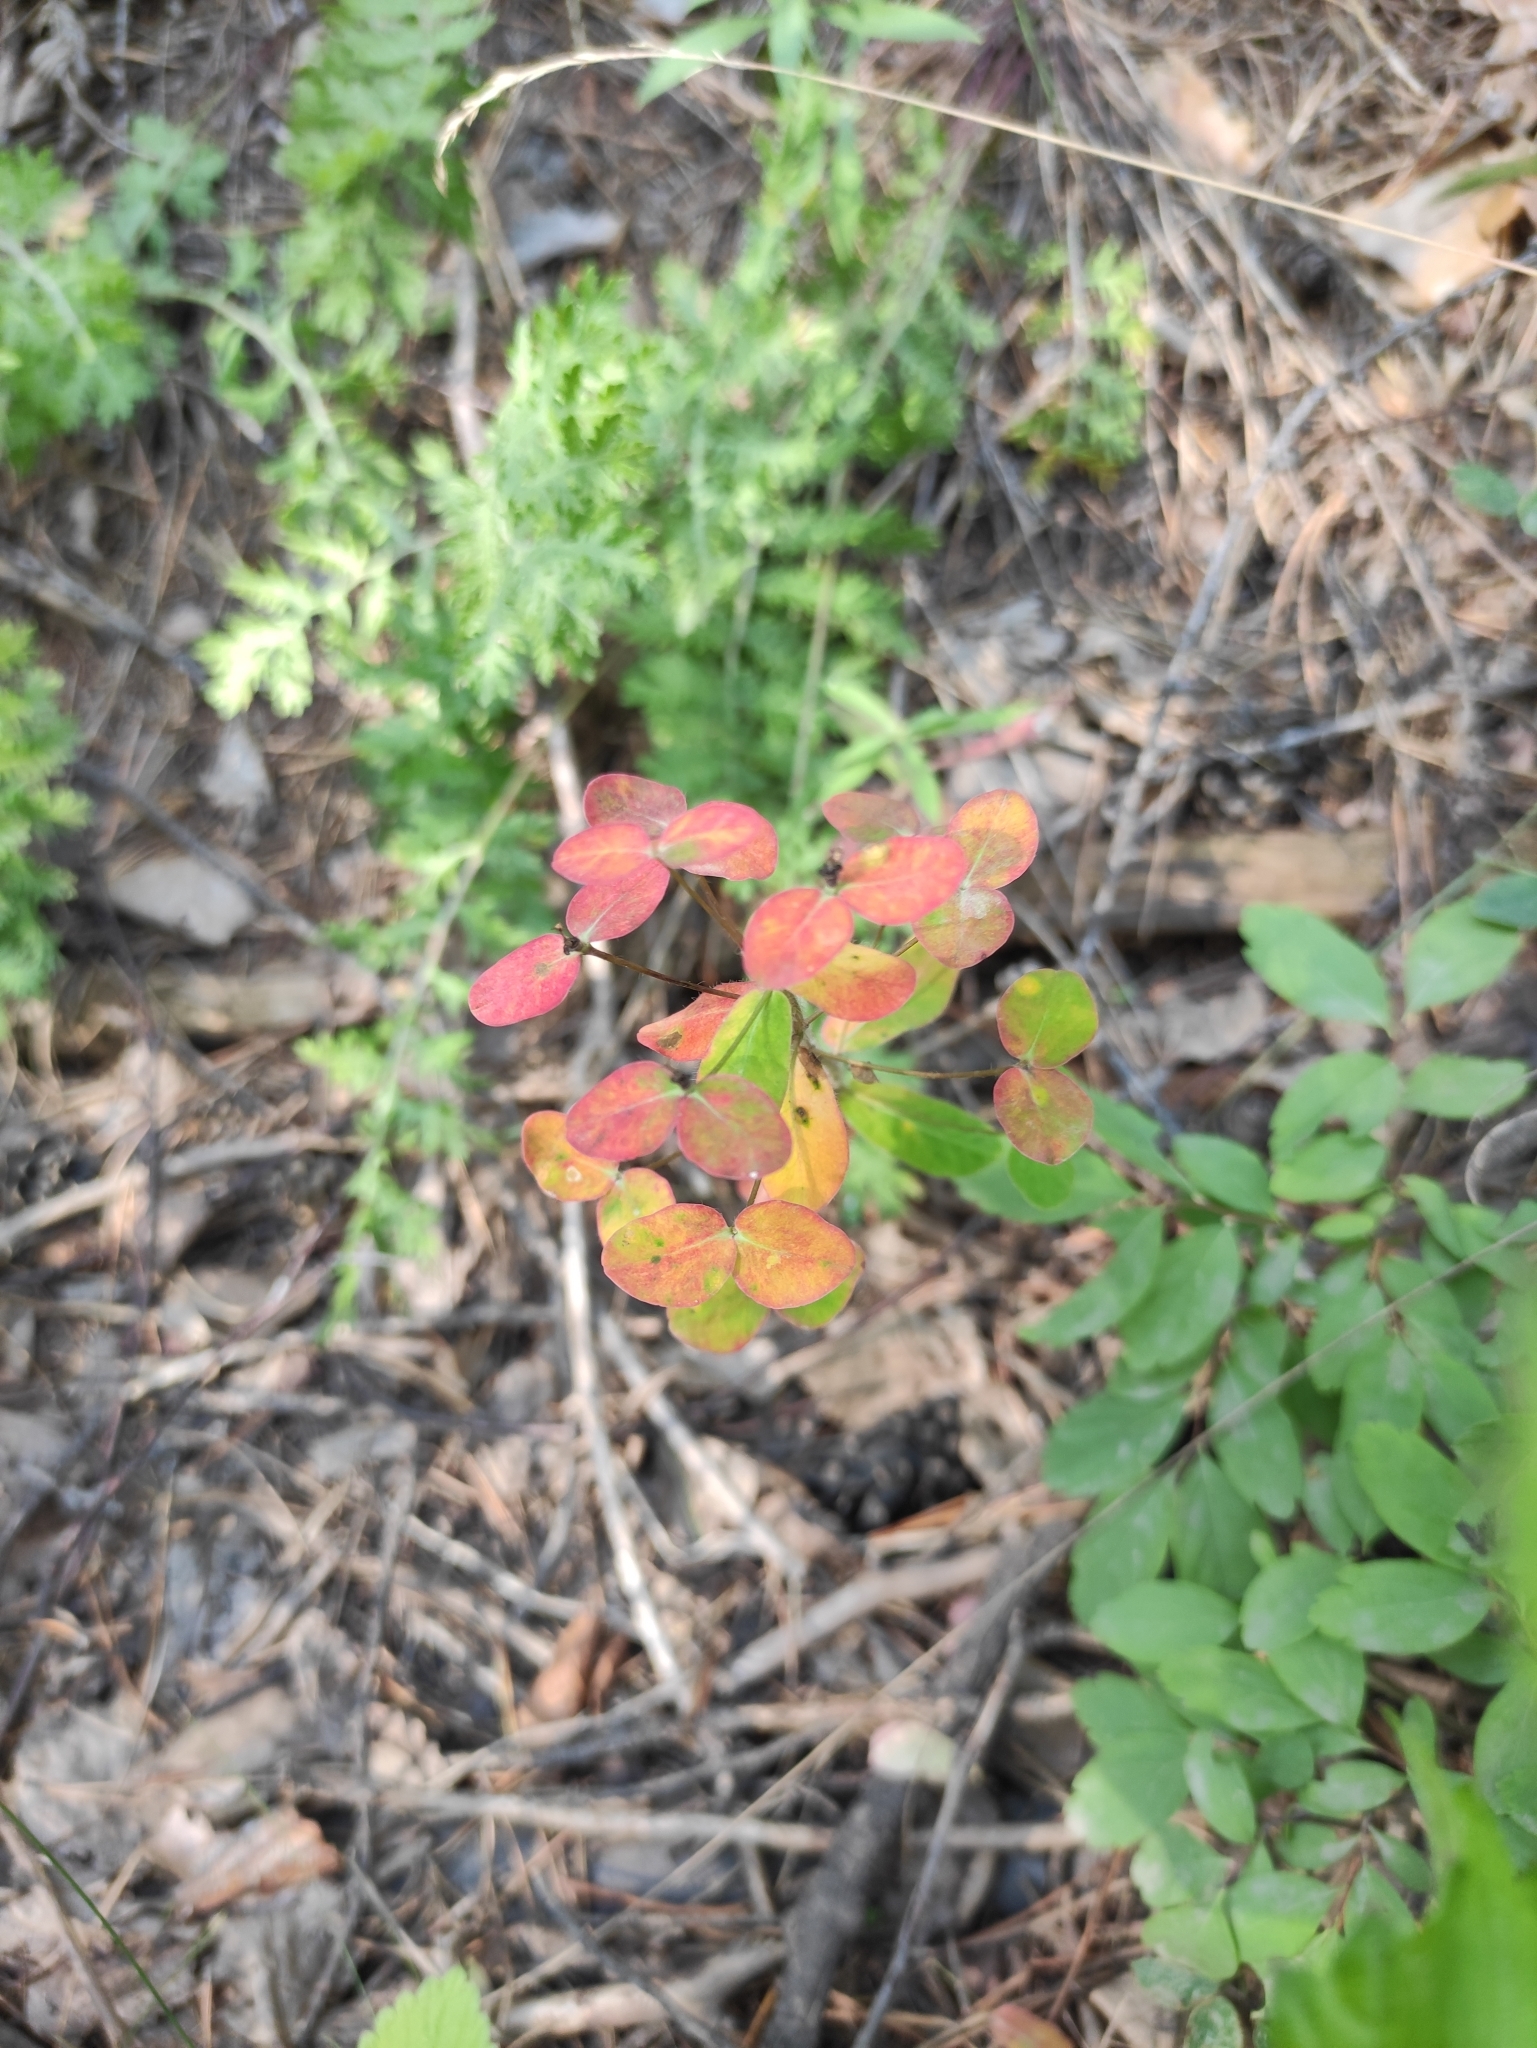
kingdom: Plantae
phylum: Tracheophyta
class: Magnoliopsida
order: Malpighiales
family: Euphorbiaceae
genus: Euphorbia
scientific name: Euphorbia jenisseiensis
